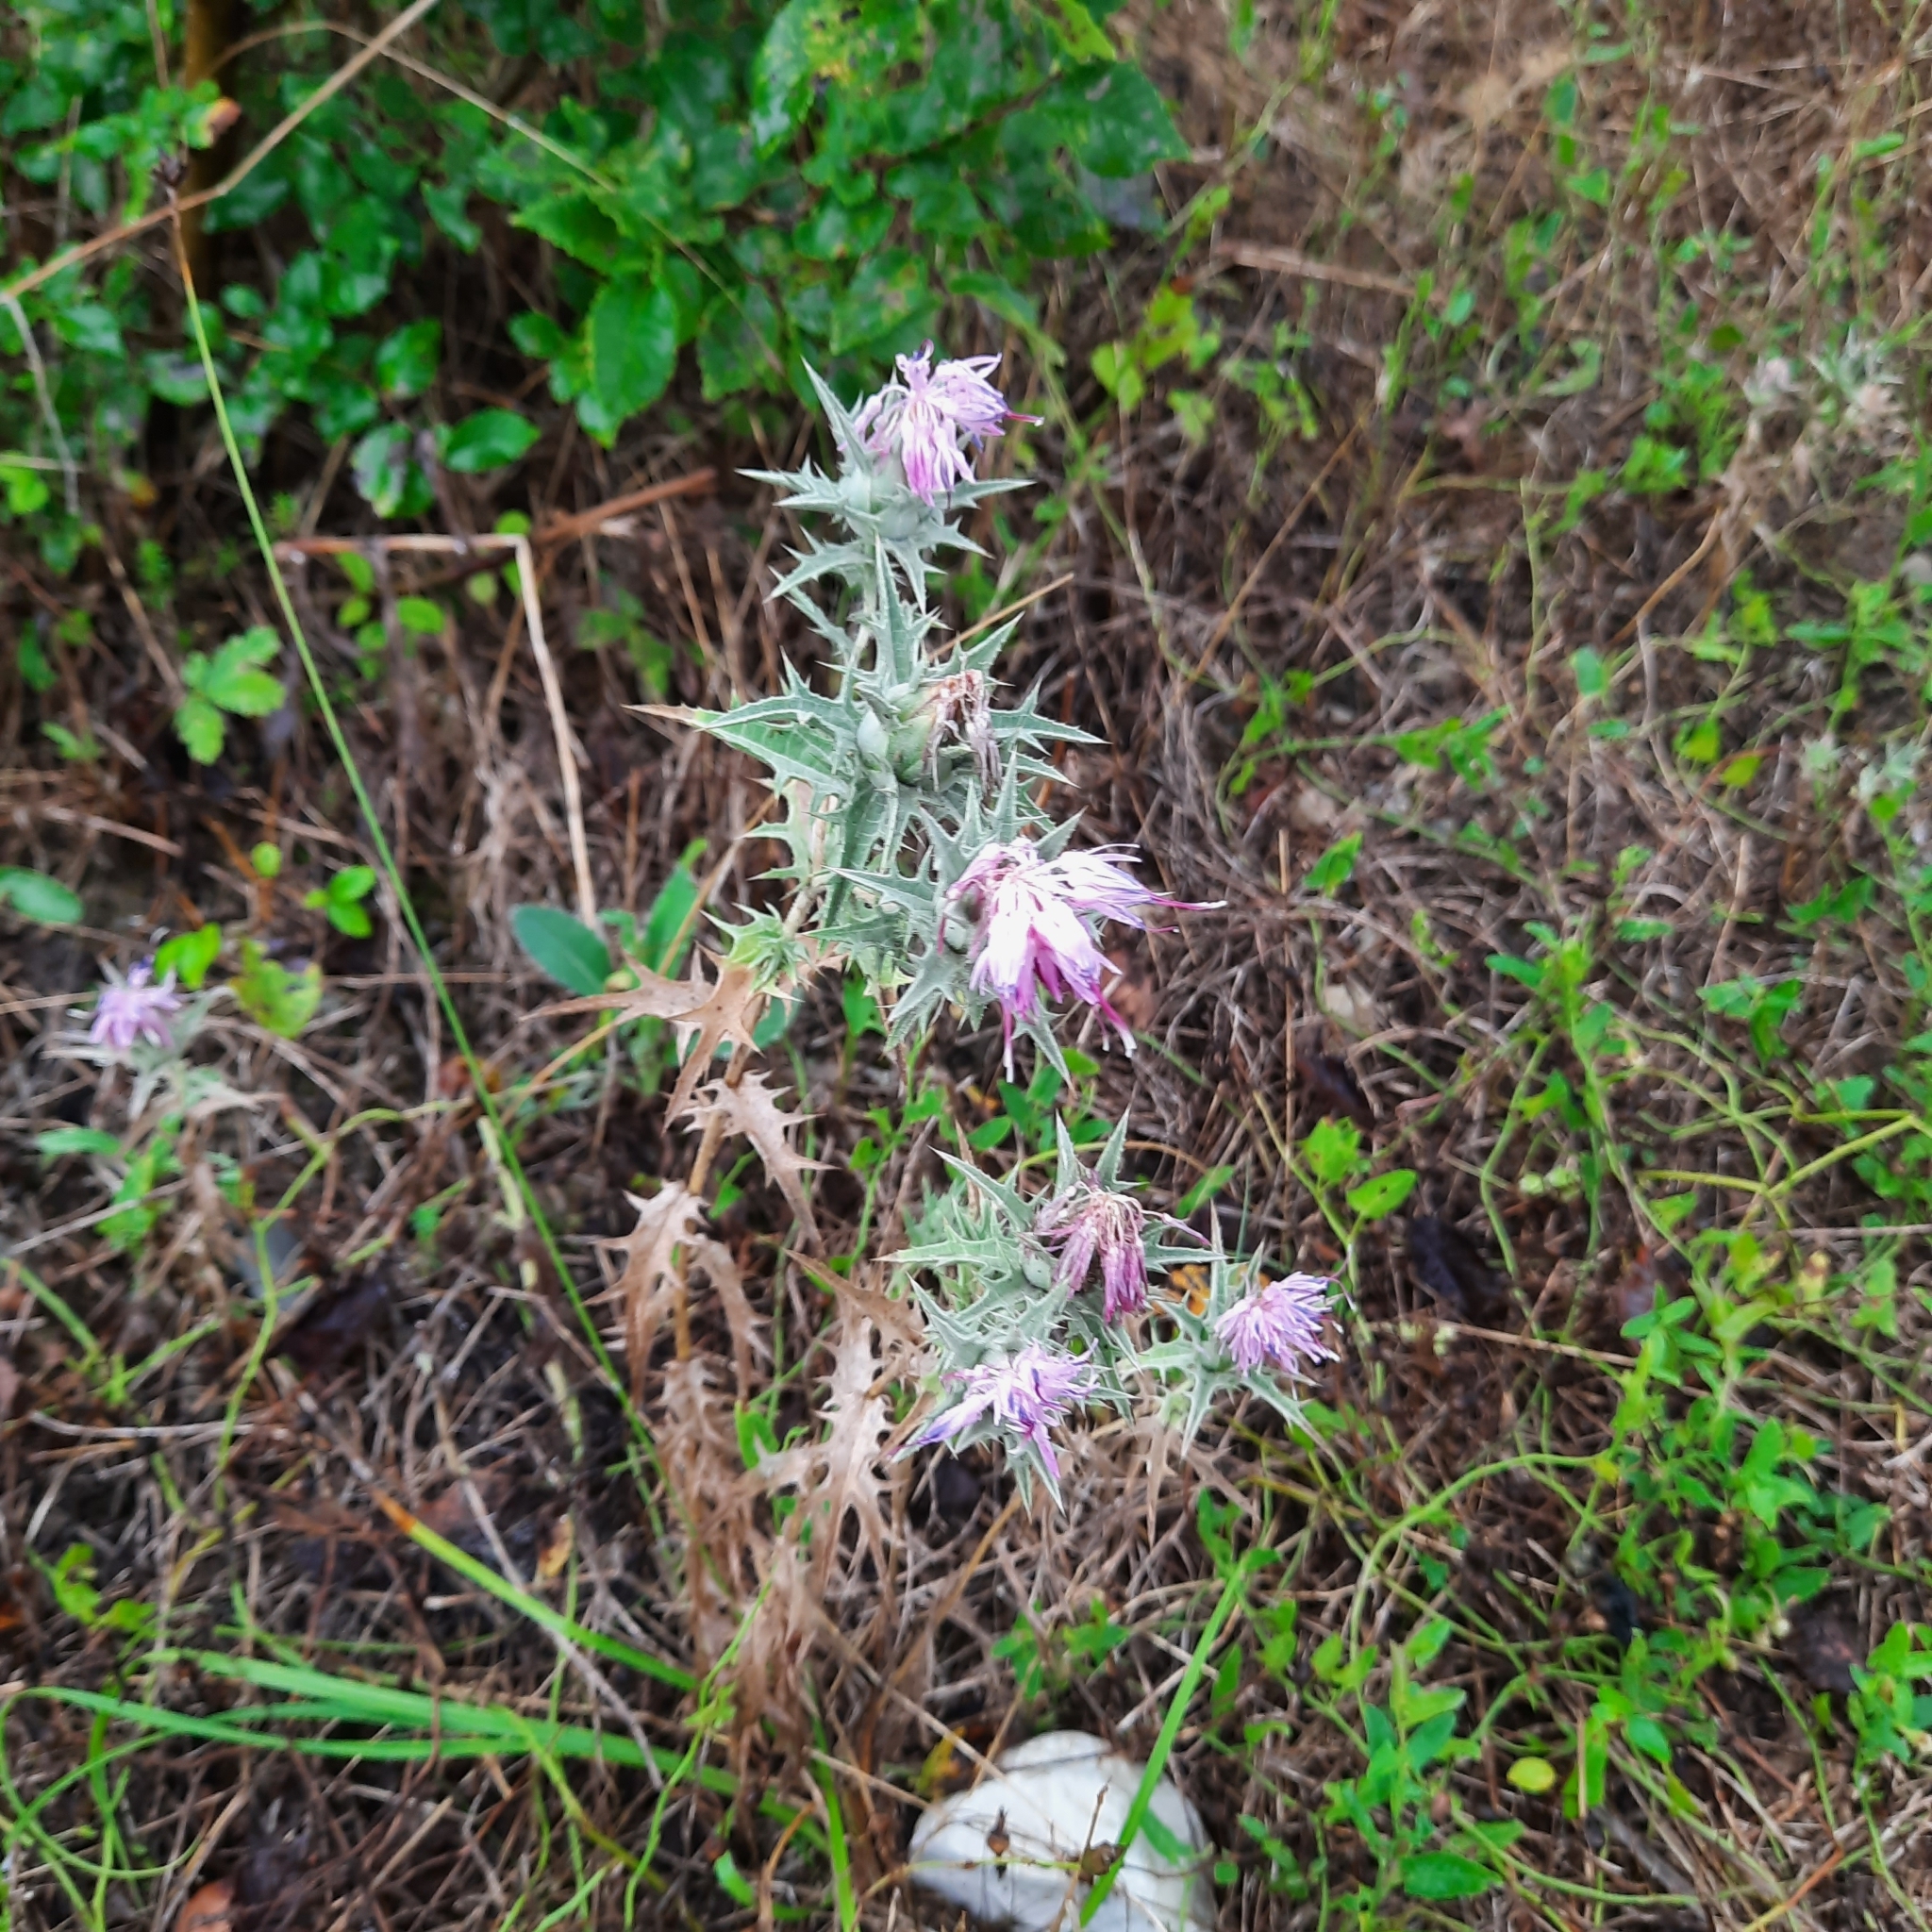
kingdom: Plantae
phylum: Tracheophyta
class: Magnoliopsida
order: Asterales
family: Asteraceae
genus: Carthamus
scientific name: Carthamus glaucus
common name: Mediterranean thistle
